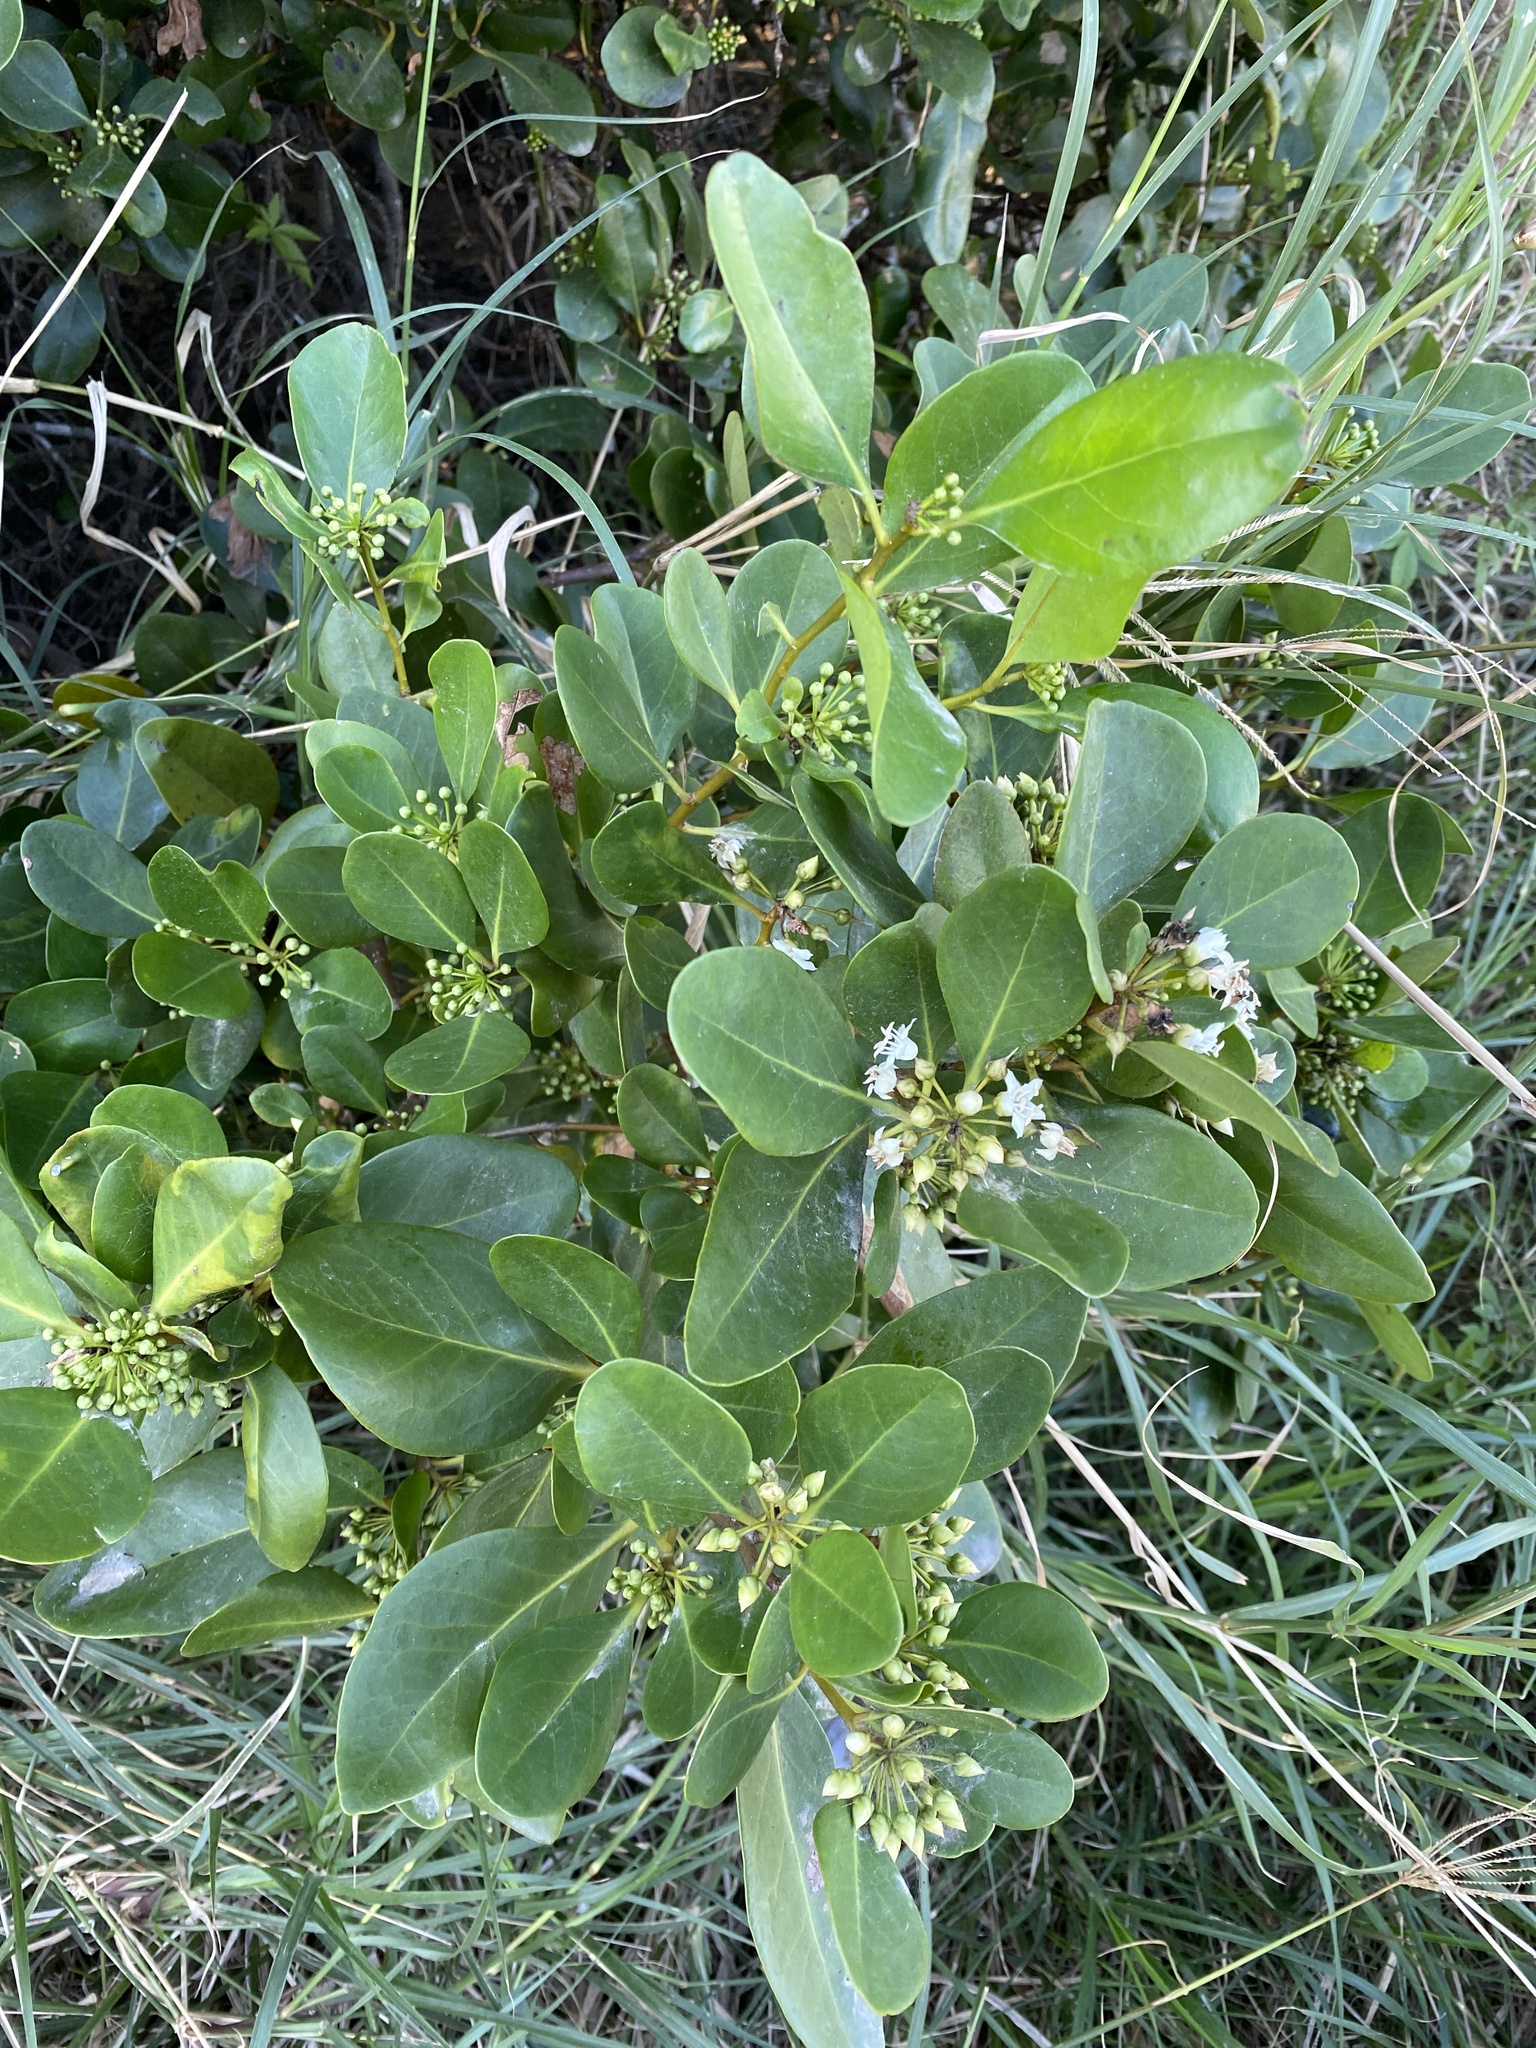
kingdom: Plantae
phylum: Tracheophyta
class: Magnoliopsida
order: Ericales
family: Primulaceae
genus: Aegiceras
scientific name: Aegiceras corniculatum
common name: River mangrove
